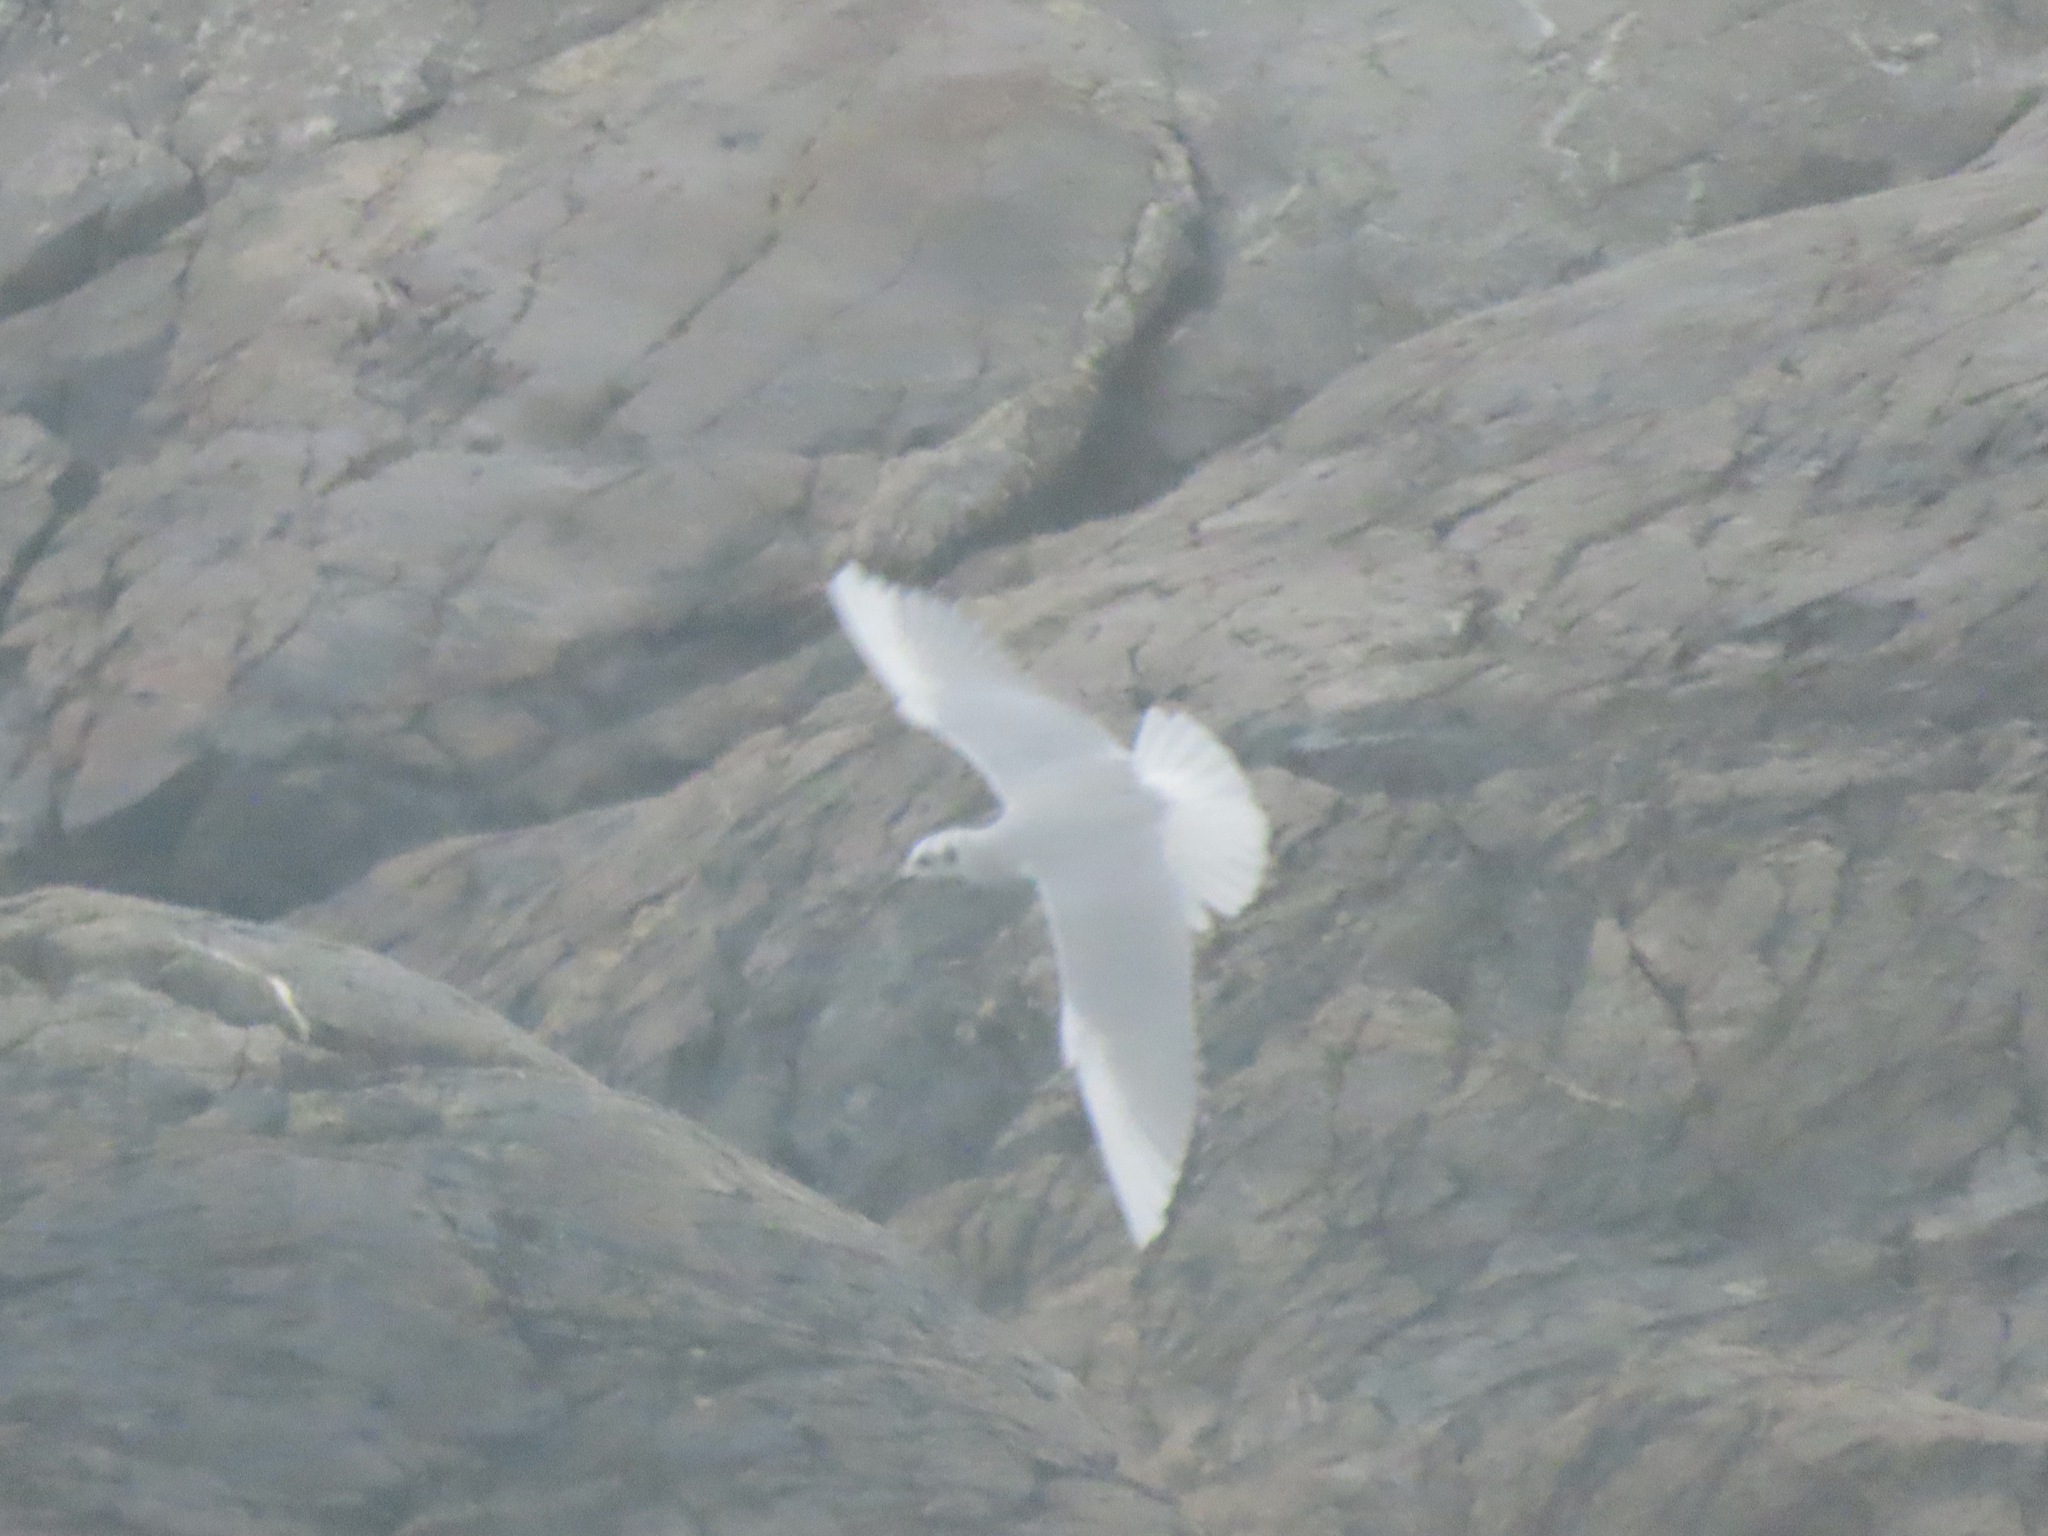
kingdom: Animalia
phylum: Chordata
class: Aves
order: Charadriiformes
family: Laridae
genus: Chroicocephalus
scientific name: Chroicocephalus philadelphia
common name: Bonaparte's gull
